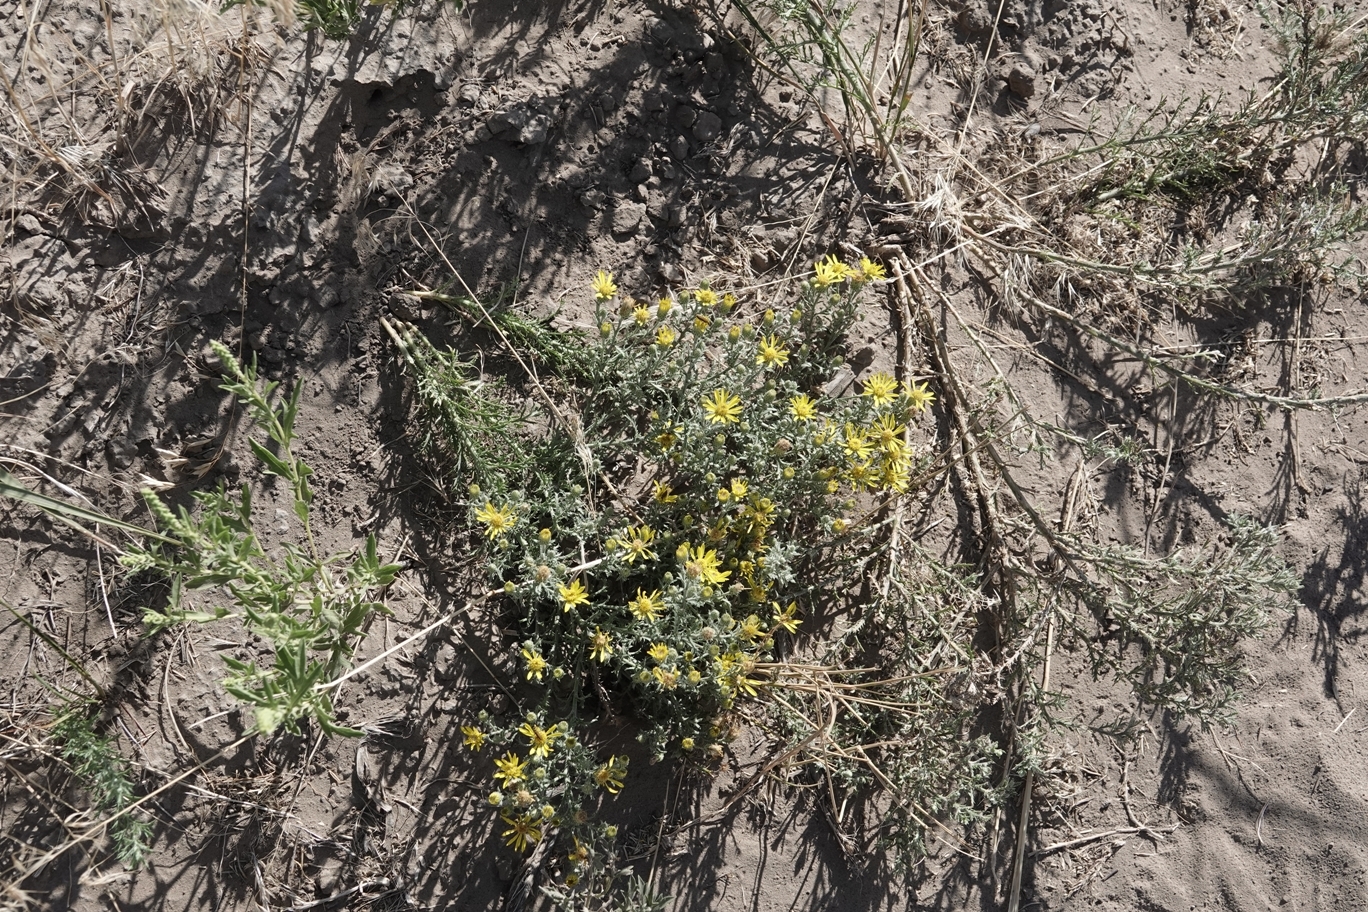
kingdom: Plantae
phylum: Tracheophyta
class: Magnoliopsida
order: Asterales
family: Asteraceae
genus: Xanthisma
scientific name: Xanthisma spinulosum
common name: Spiny goldenweed
